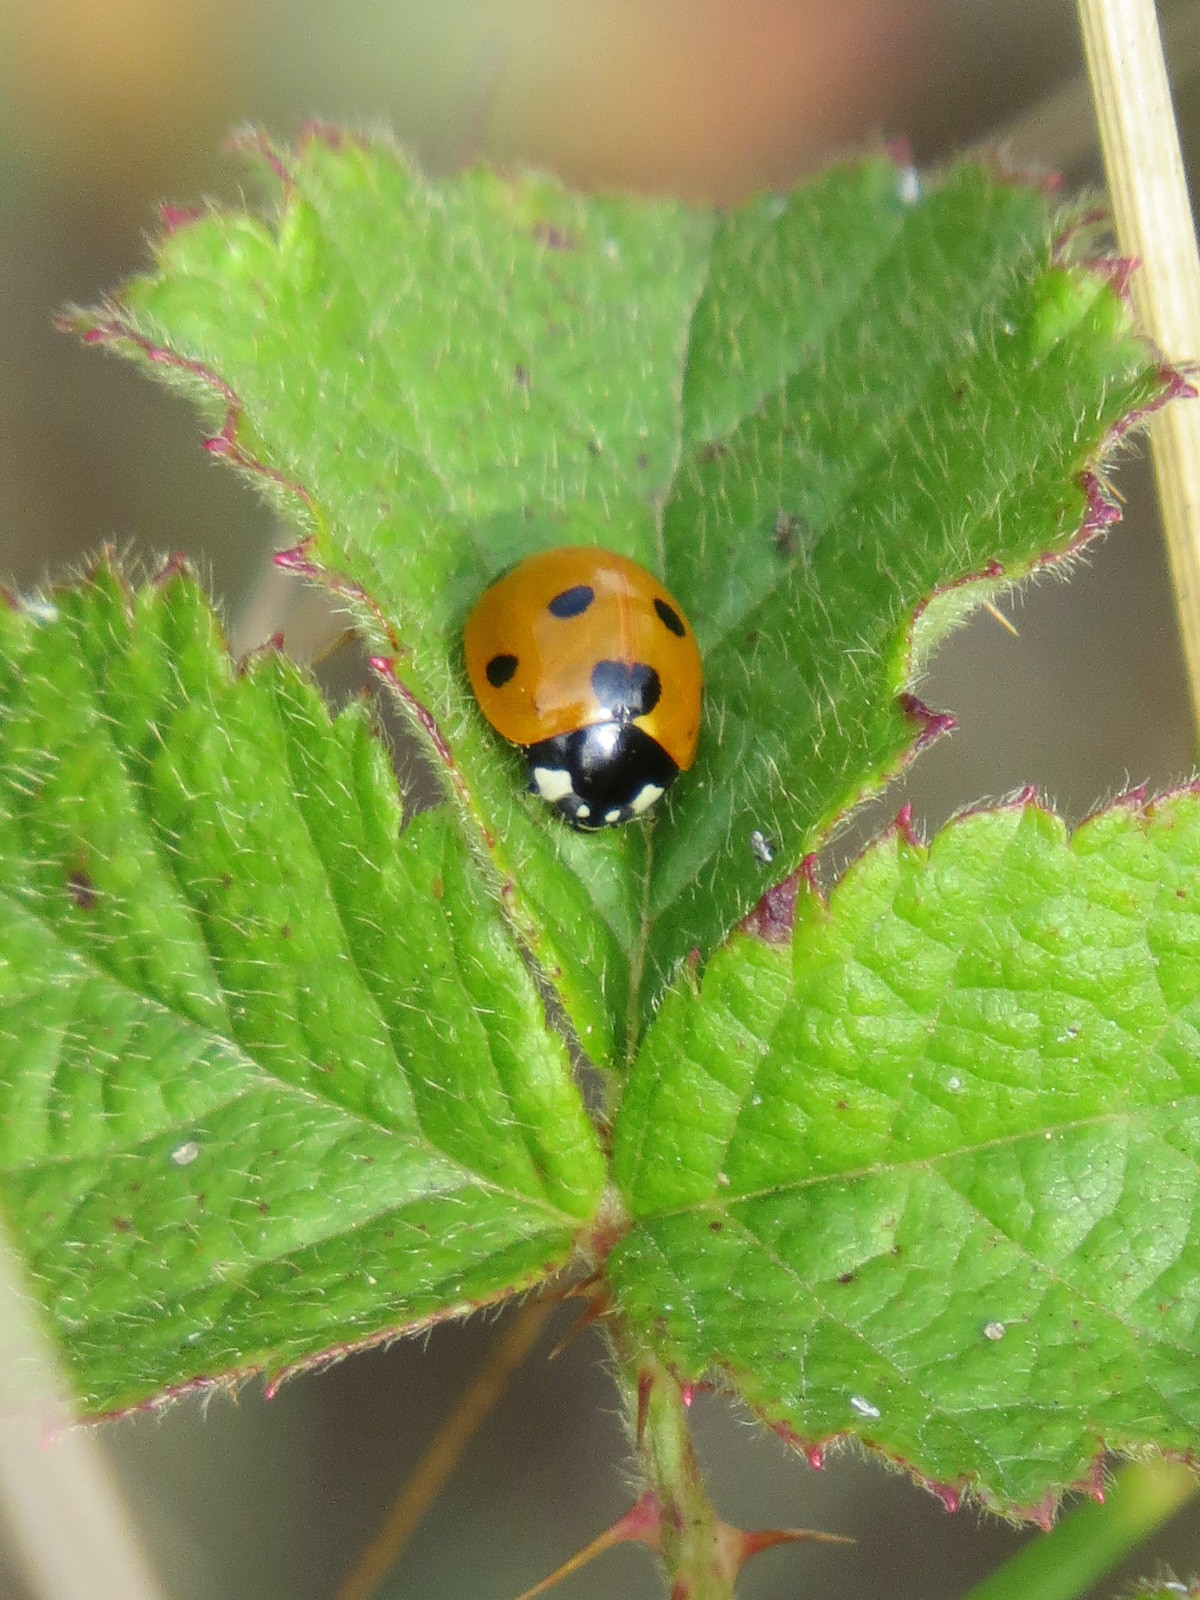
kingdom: Animalia
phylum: Arthropoda
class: Insecta
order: Coleoptera
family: Coccinellidae
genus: Coccinella
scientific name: Coccinella septempunctata
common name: Sevenspotted lady beetle
